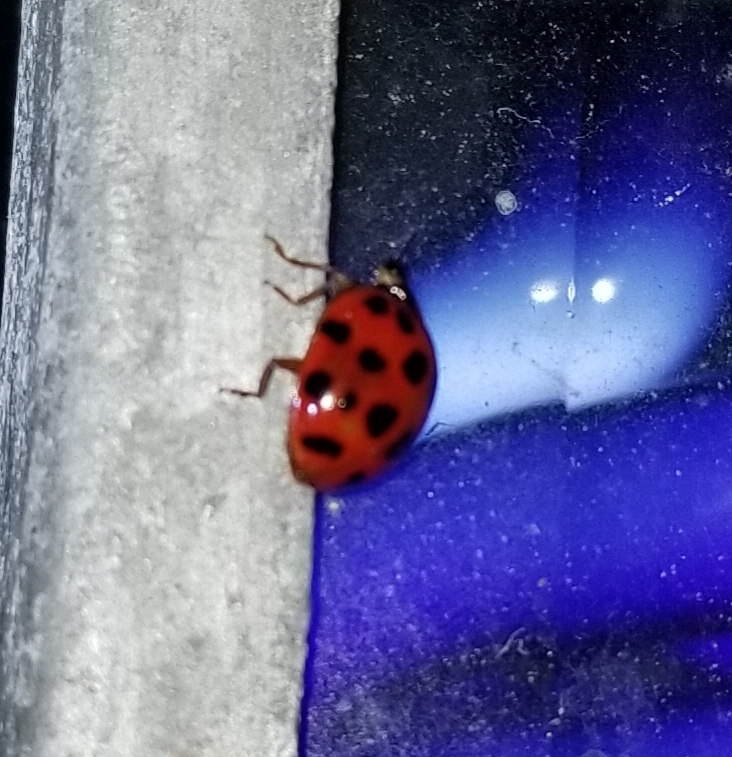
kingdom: Animalia
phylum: Arthropoda
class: Insecta
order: Coleoptera
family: Coccinellidae
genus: Harmonia
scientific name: Harmonia axyridis
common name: Harlequin ladybird
